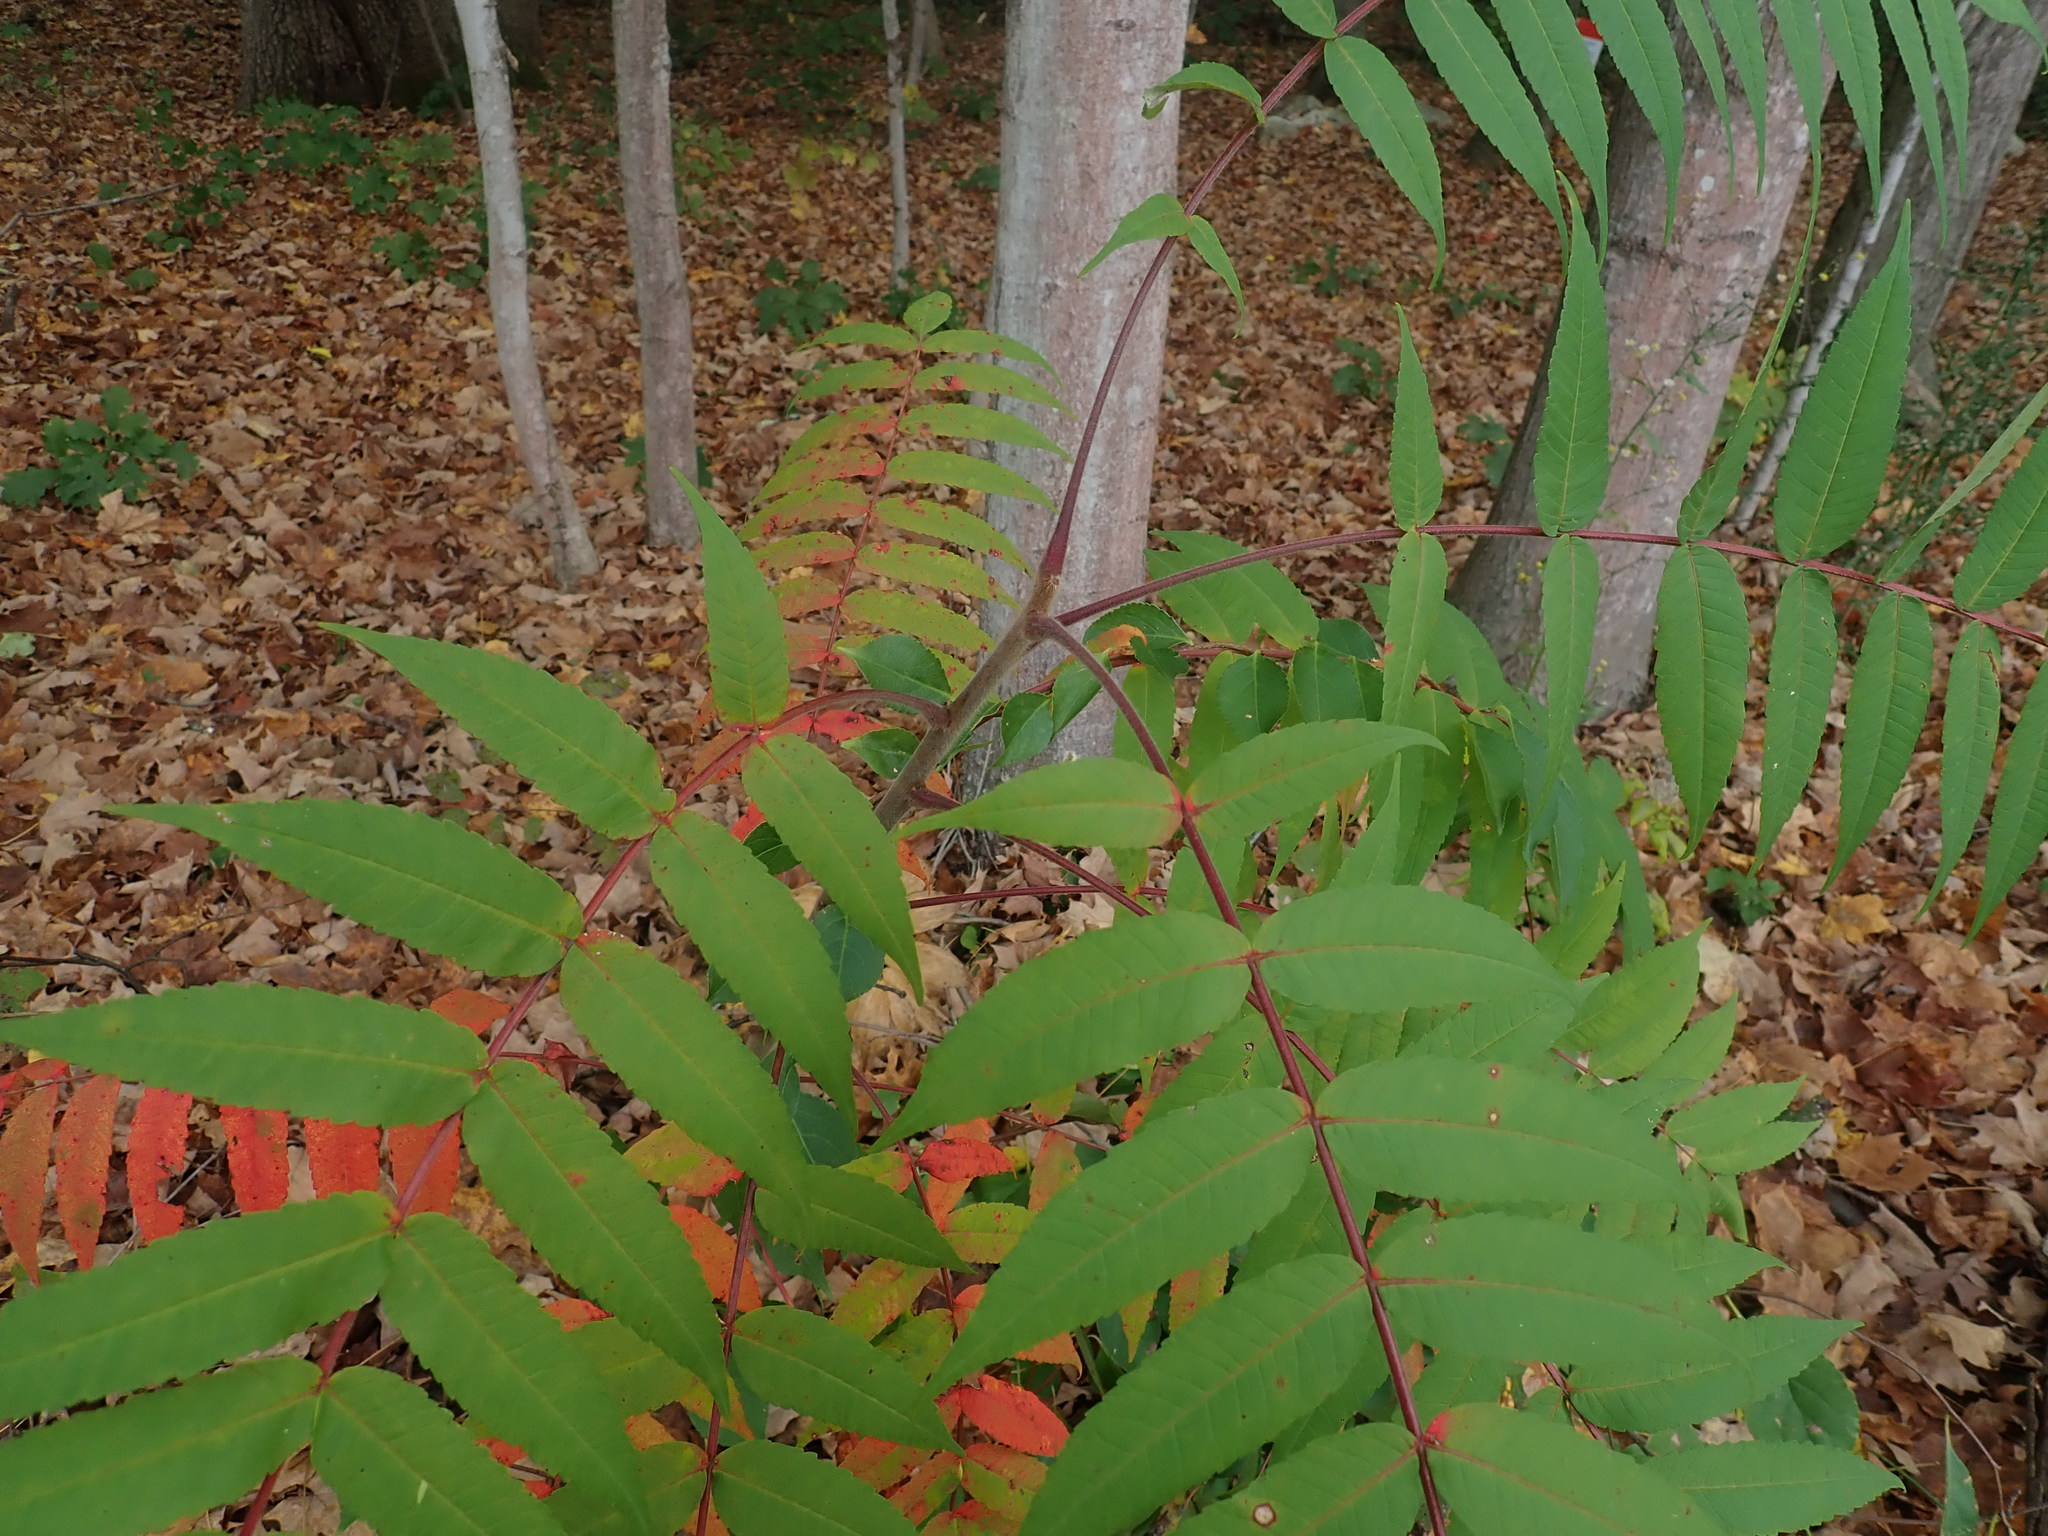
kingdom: Plantae
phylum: Tracheophyta
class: Magnoliopsida
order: Sapindales
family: Anacardiaceae
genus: Rhus
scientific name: Rhus typhina
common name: Staghorn sumac
